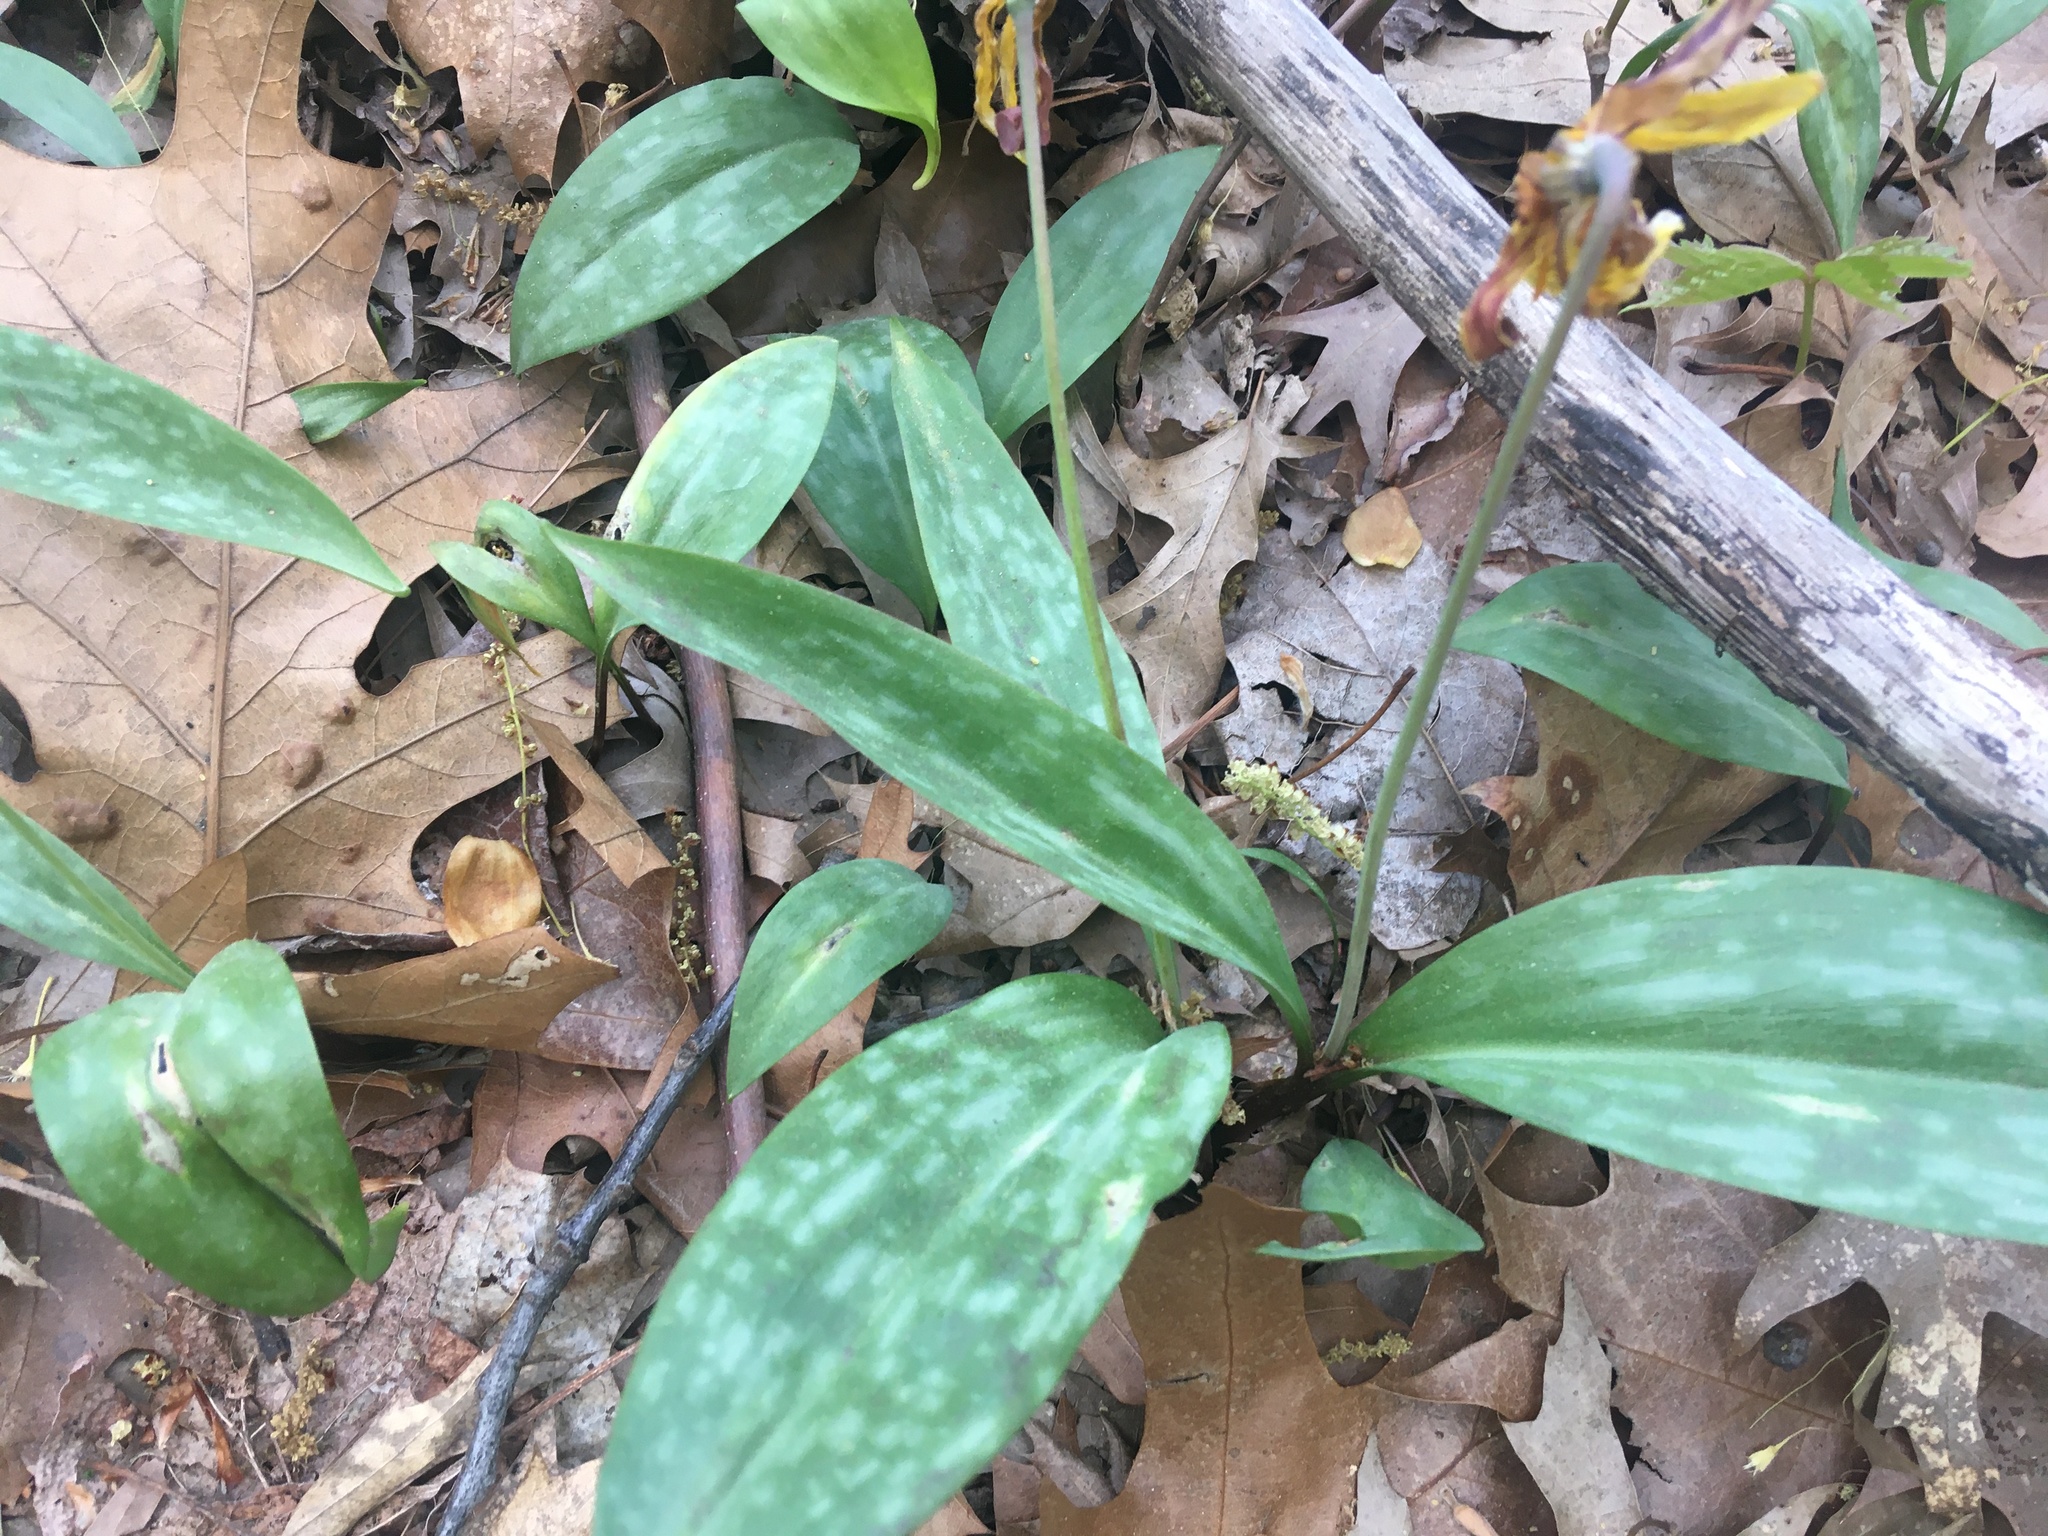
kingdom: Plantae
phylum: Tracheophyta
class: Liliopsida
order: Liliales
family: Liliaceae
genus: Erythronium
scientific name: Erythronium americanum
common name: Yellow adder's-tongue
